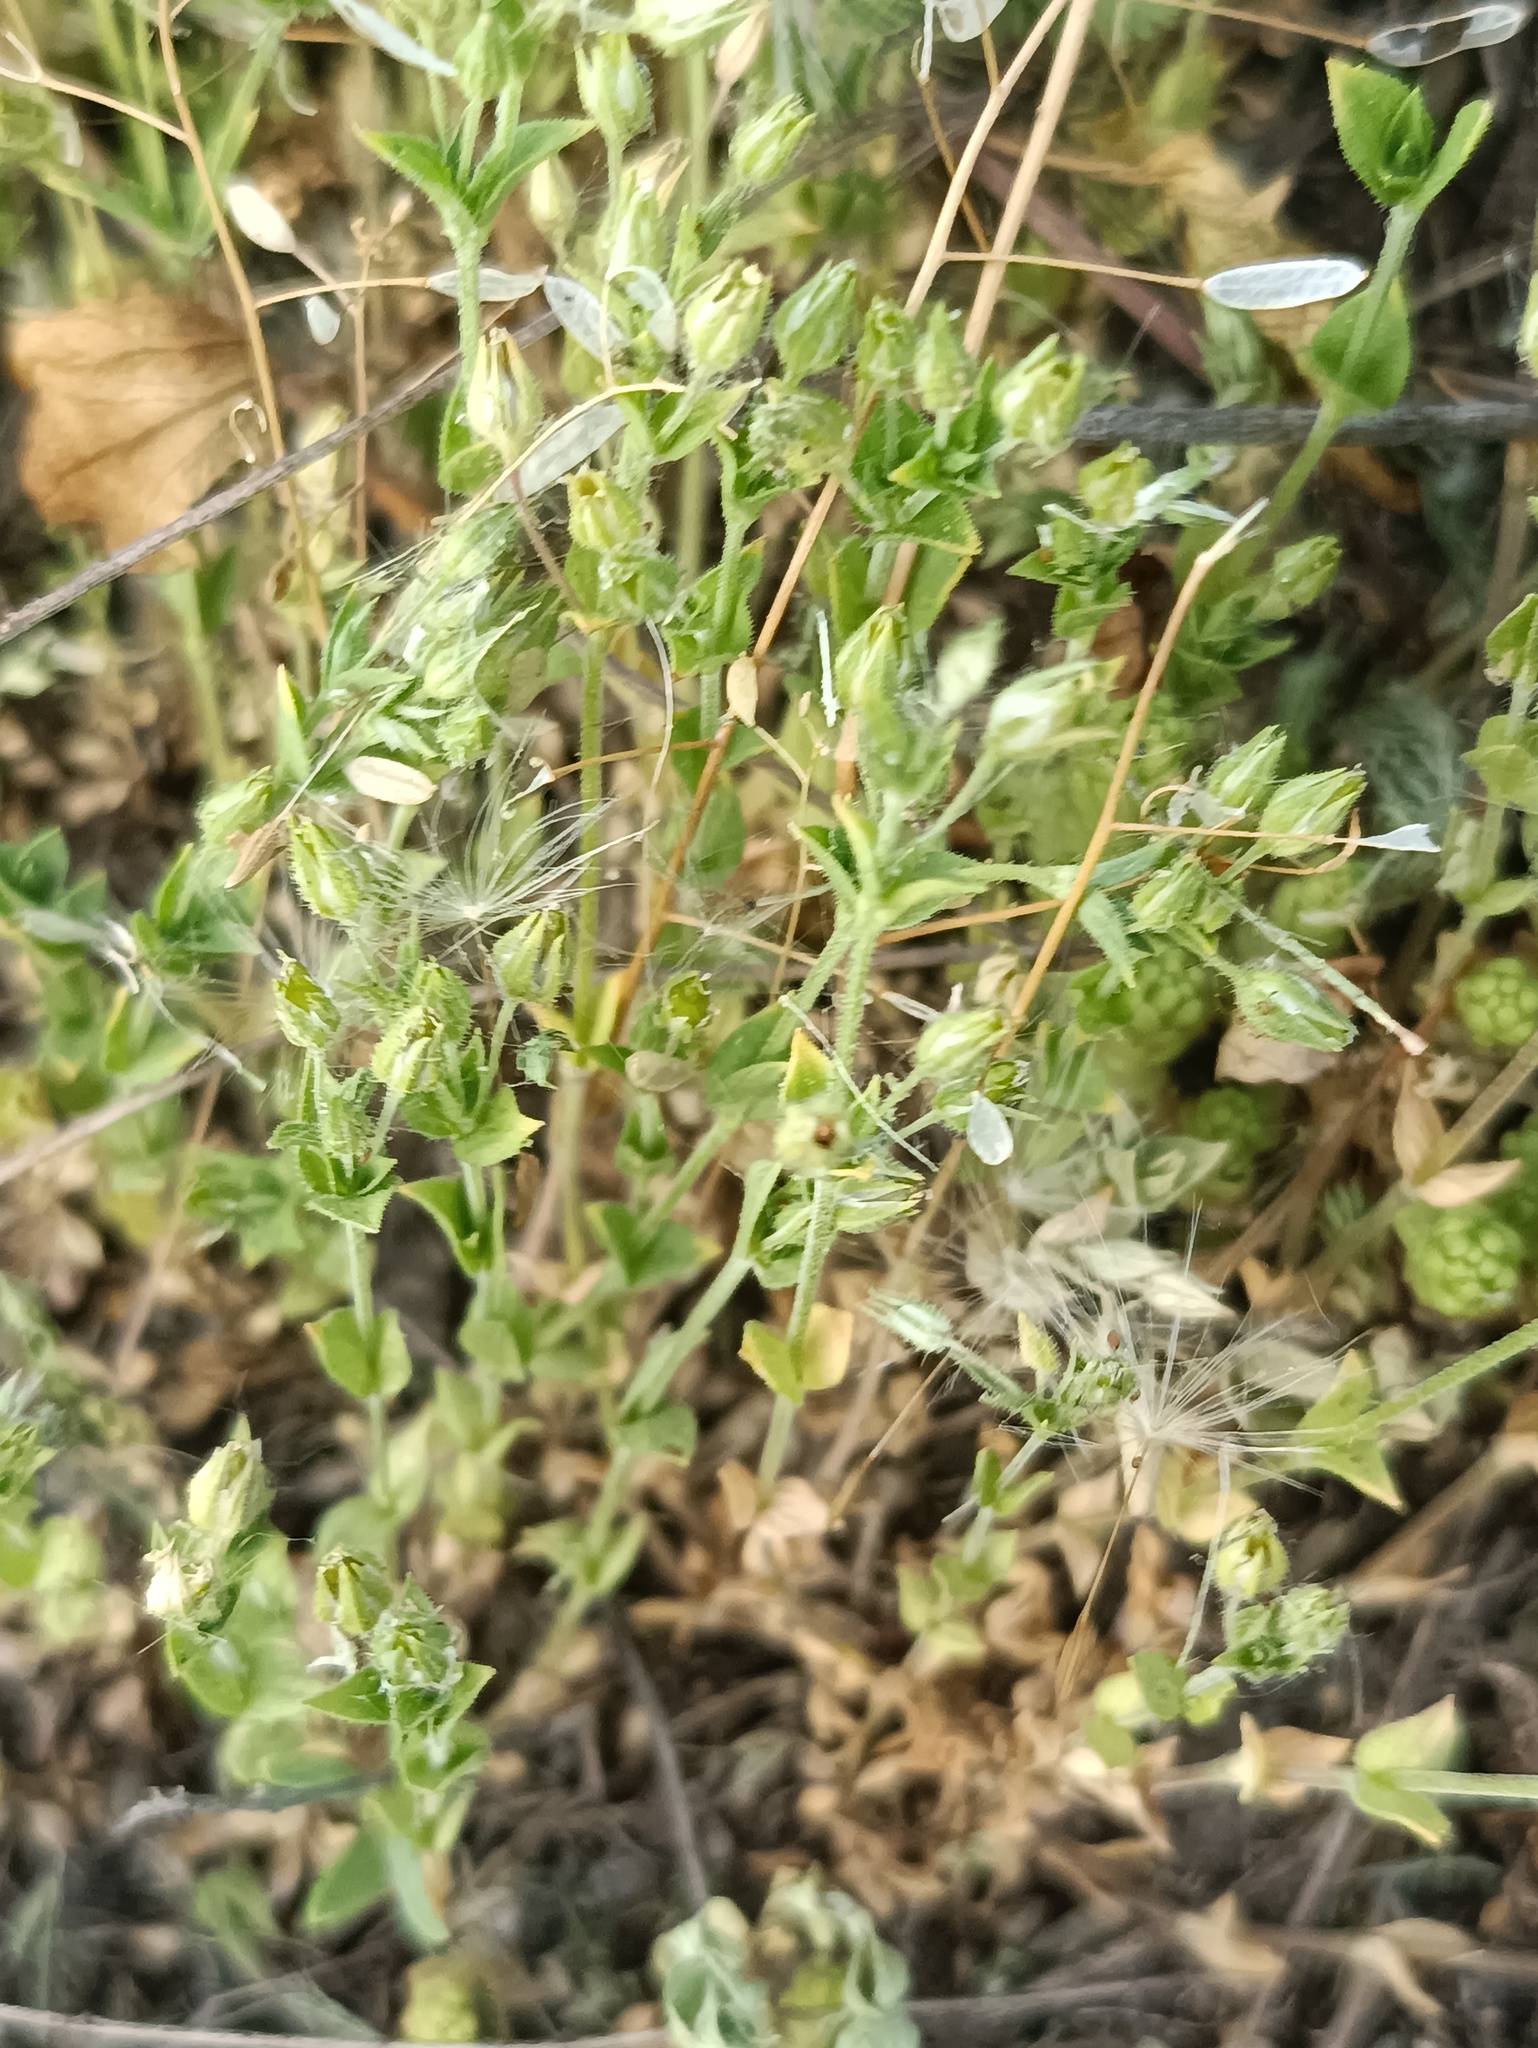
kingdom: Plantae
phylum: Tracheophyta
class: Magnoliopsida
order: Caryophyllales
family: Caryophyllaceae
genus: Arenaria
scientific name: Arenaria serpyllifolia
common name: Thyme-leaved sandwort
